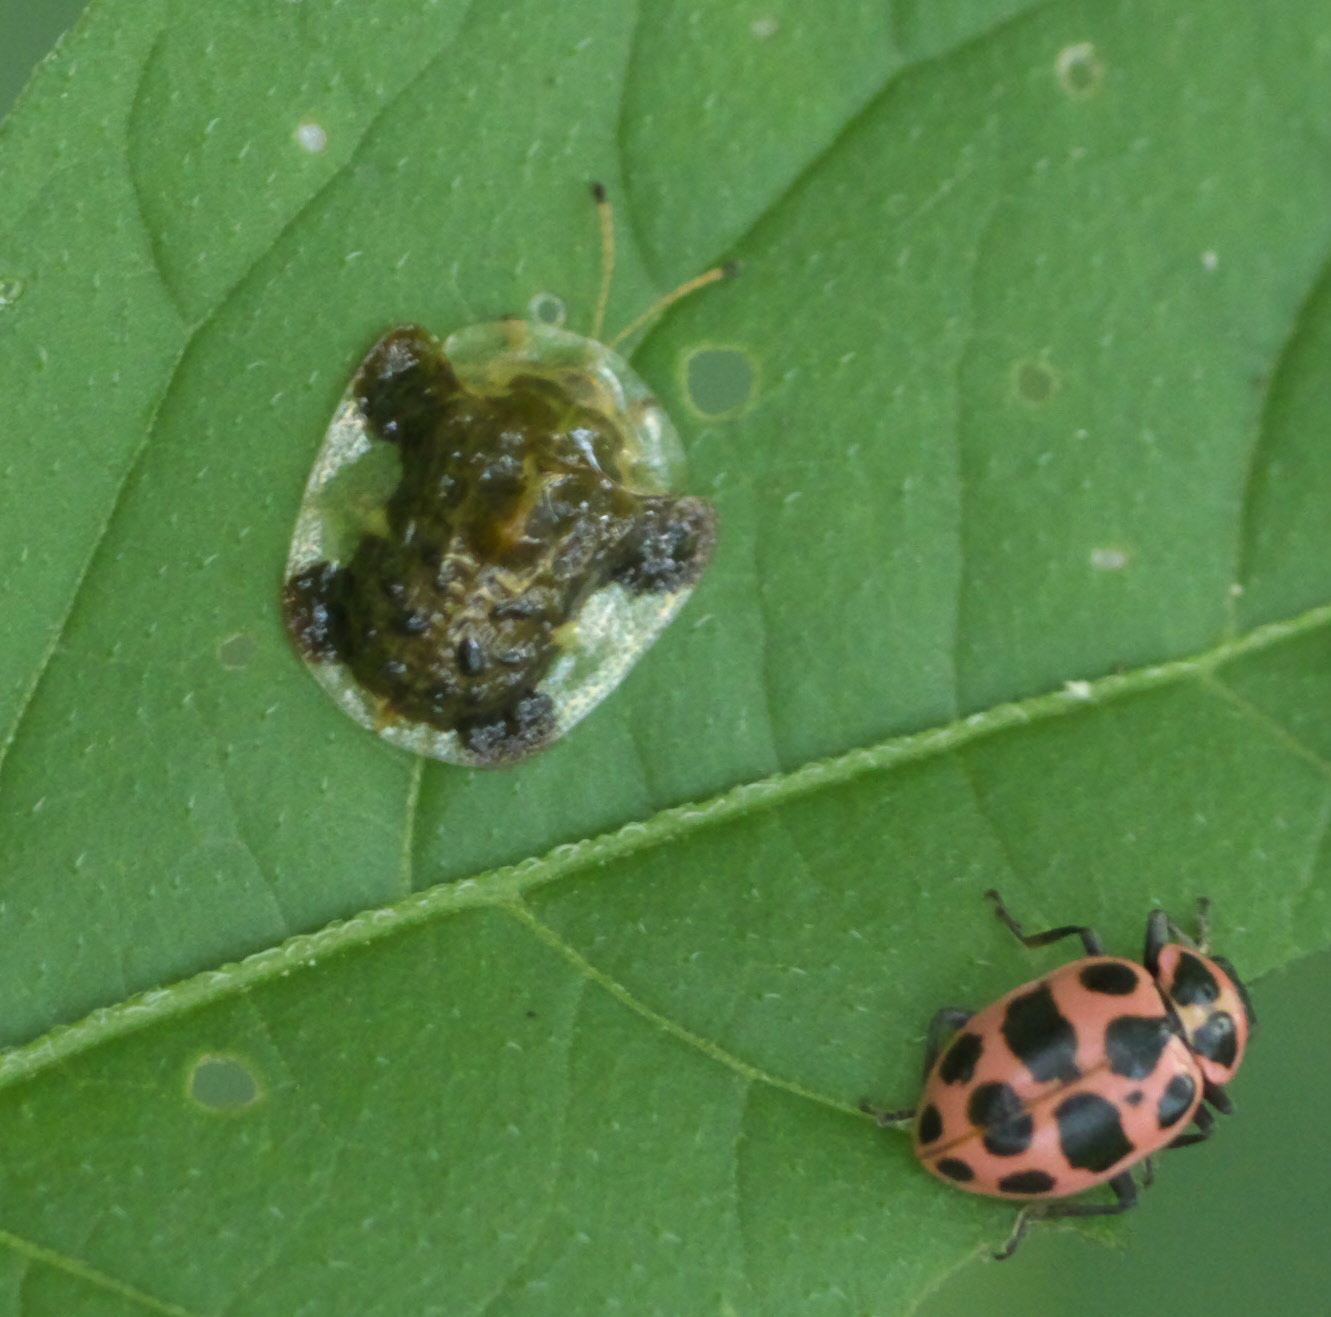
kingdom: Animalia
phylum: Arthropoda
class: Insecta
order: Coleoptera
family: Chrysomelidae
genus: Helocassis
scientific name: Helocassis clavata
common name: Clavate tortoise beetle
